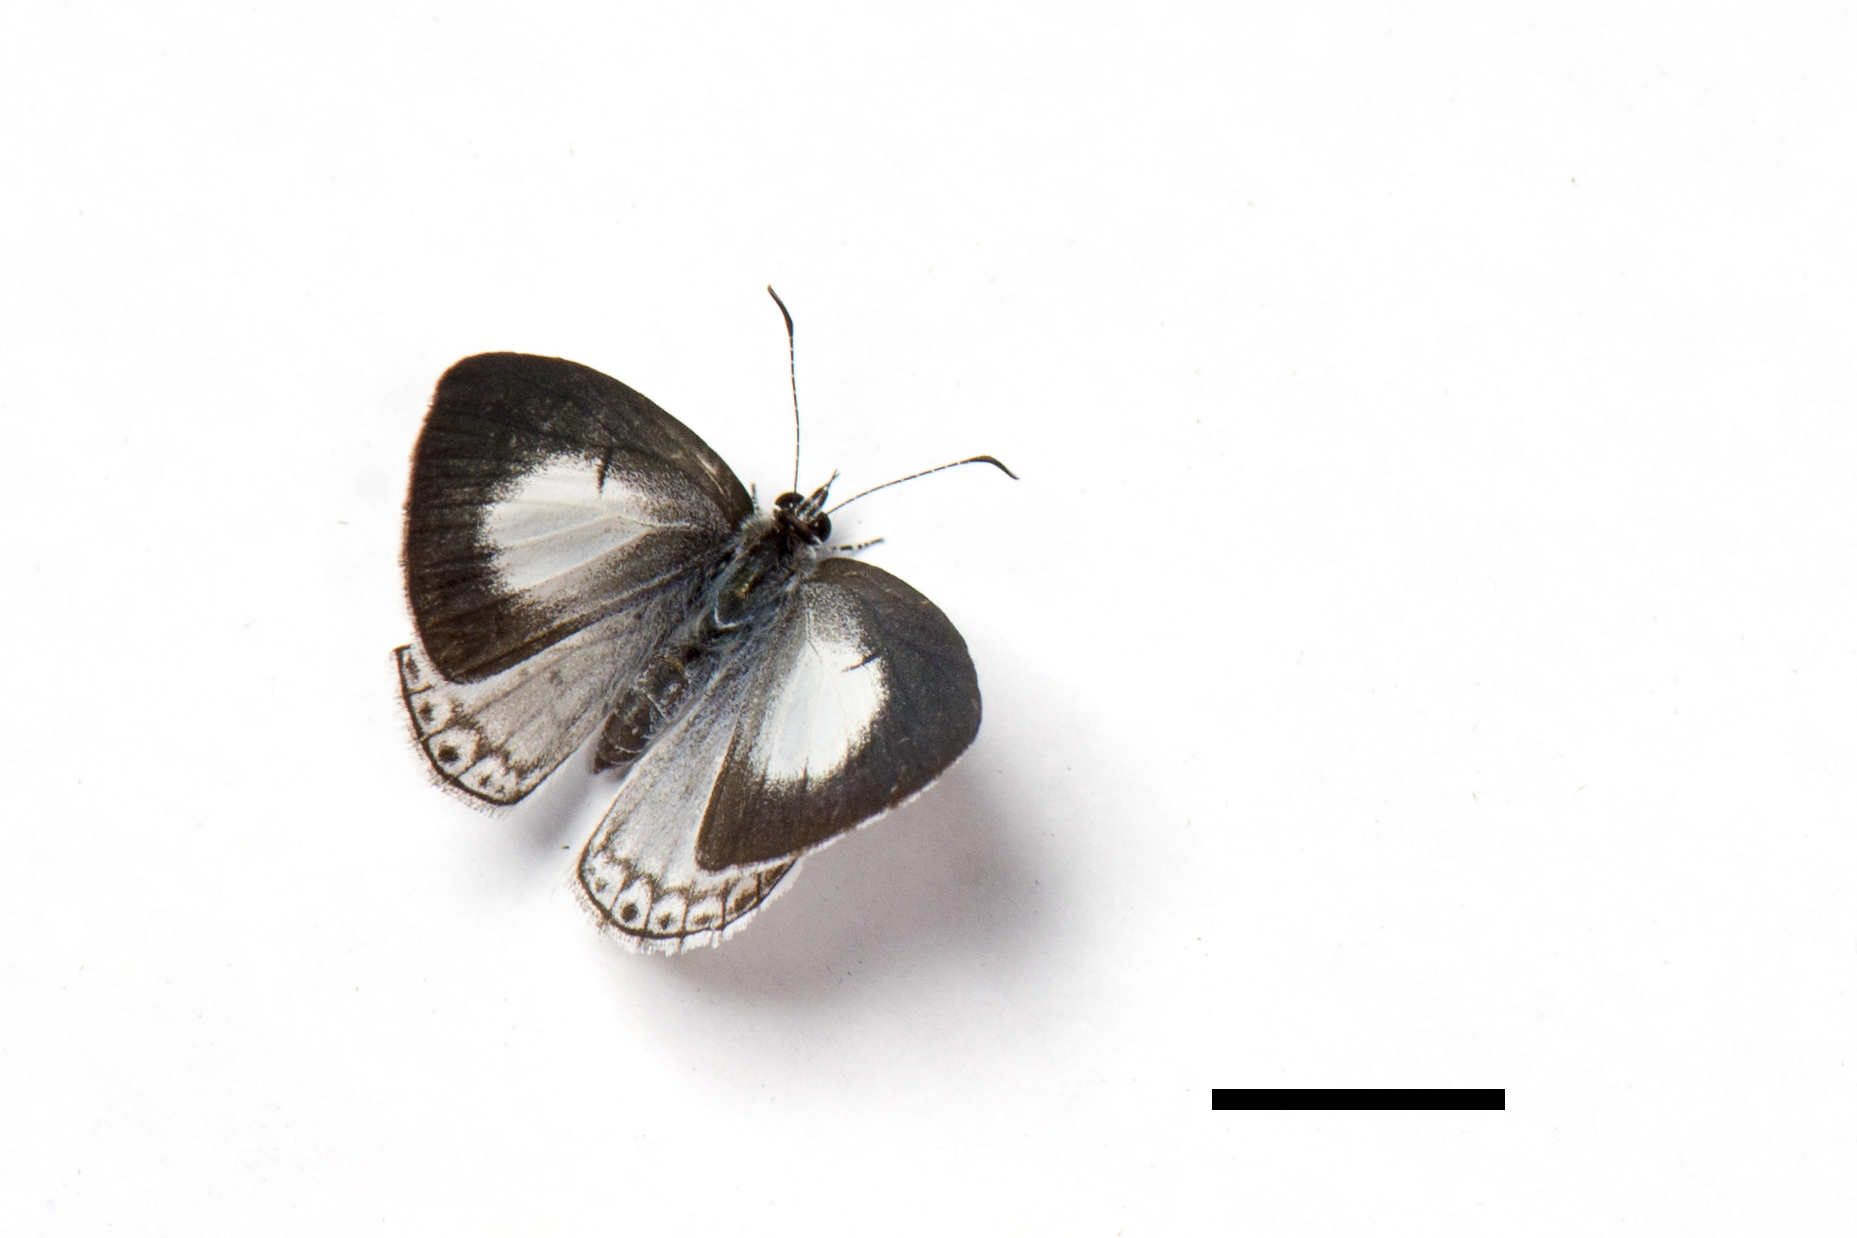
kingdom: Animalia
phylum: Arthropoda
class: Insecta
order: Lepidoptera
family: Lycaenidae
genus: Acytolepis
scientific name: Acytolepis puspa
